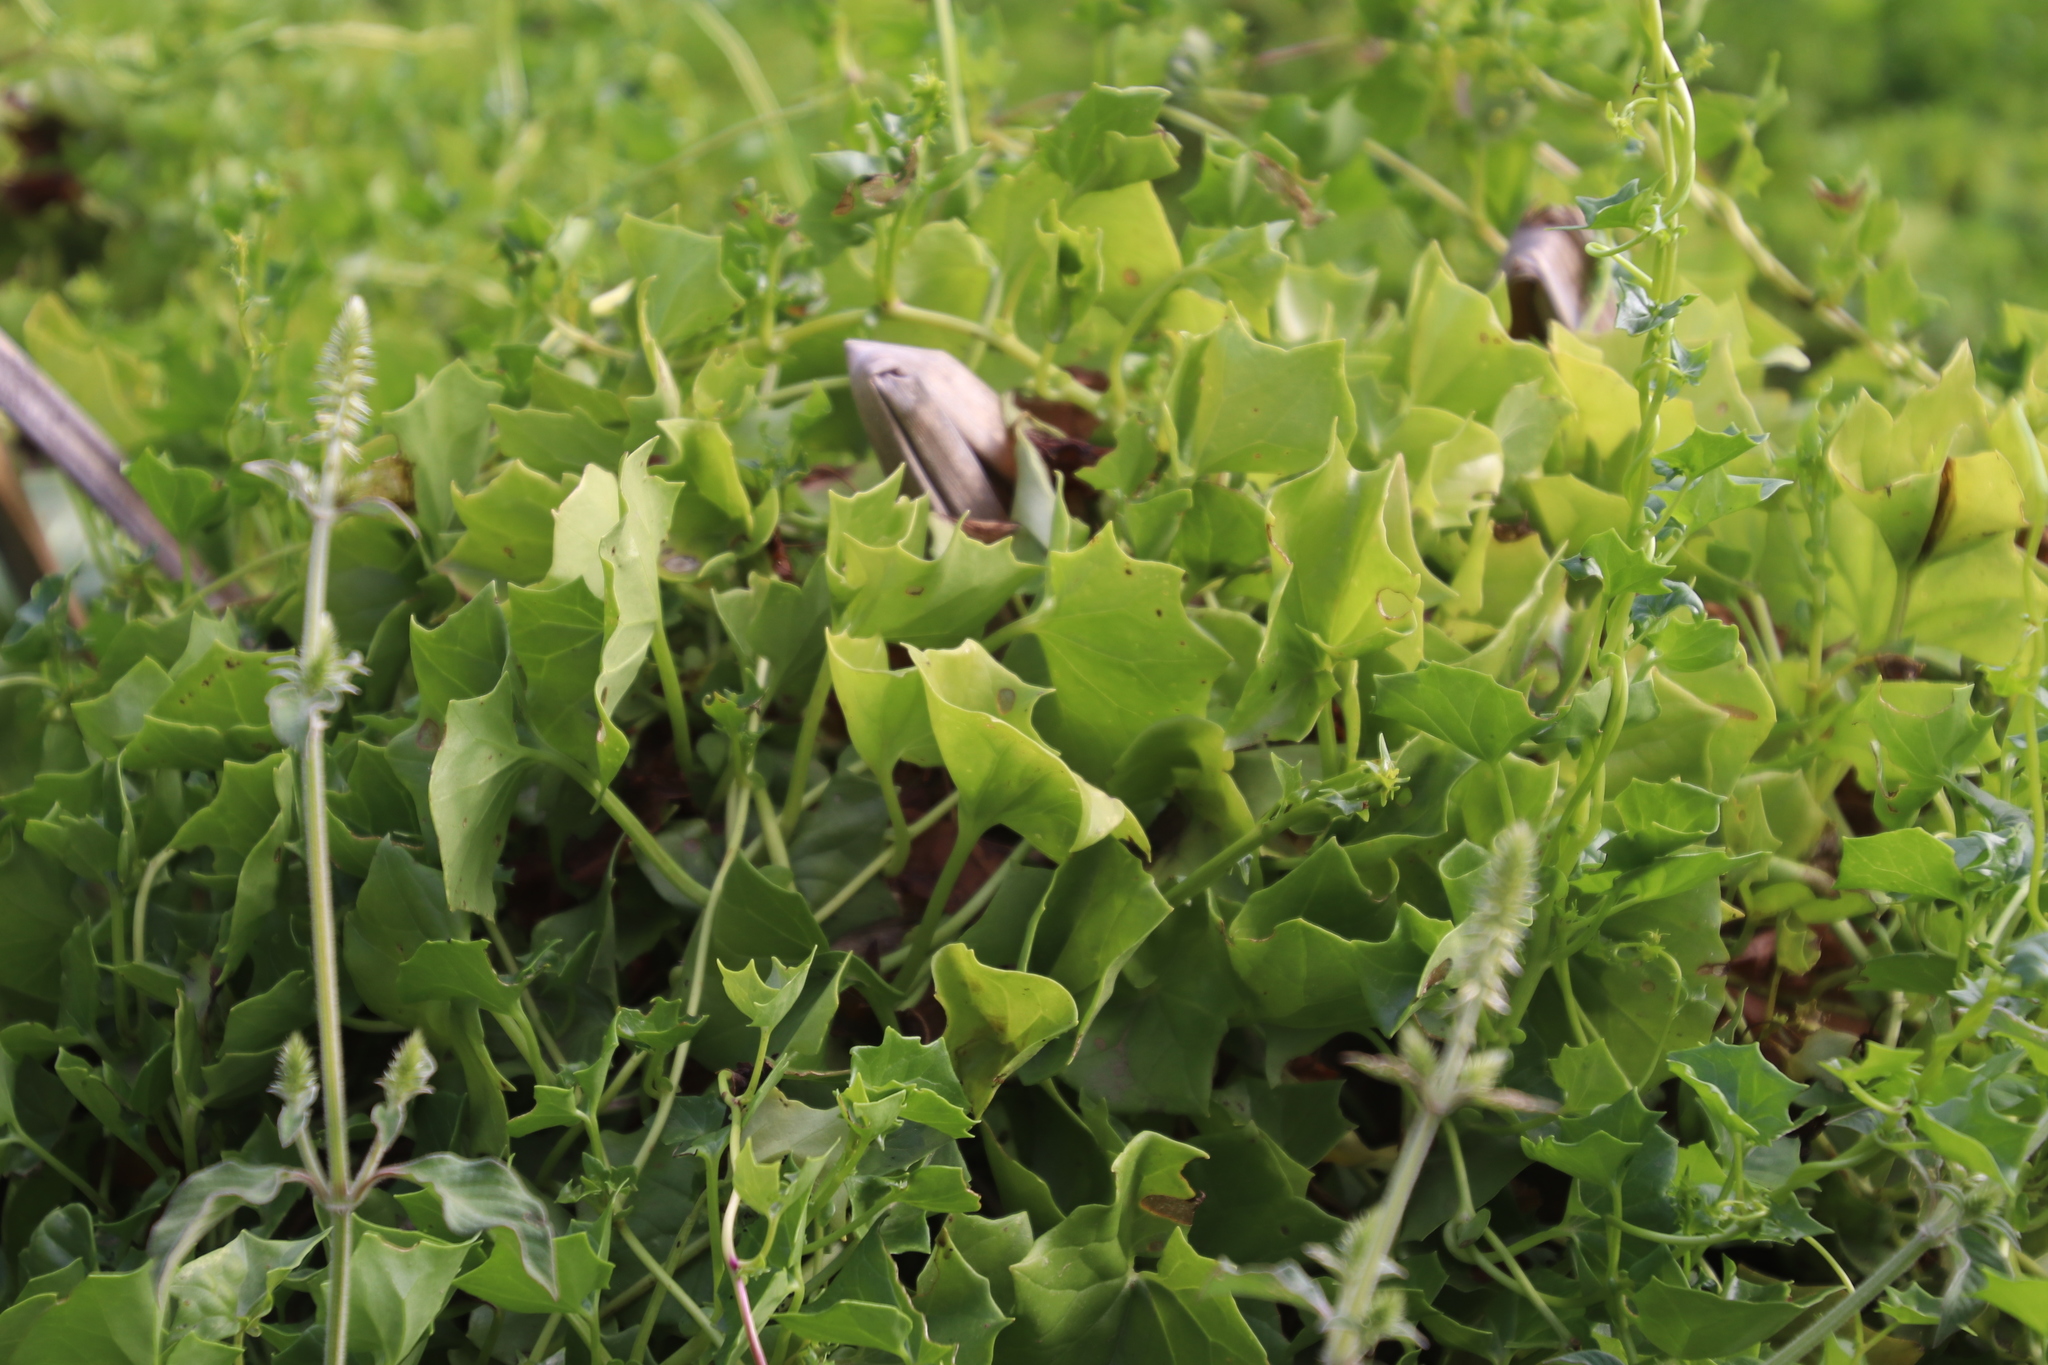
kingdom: Plantae
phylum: Tracheophyta
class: Magnoliopsida
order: Asterales
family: Asteraceae
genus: Senecio
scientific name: Senecio tamoides
